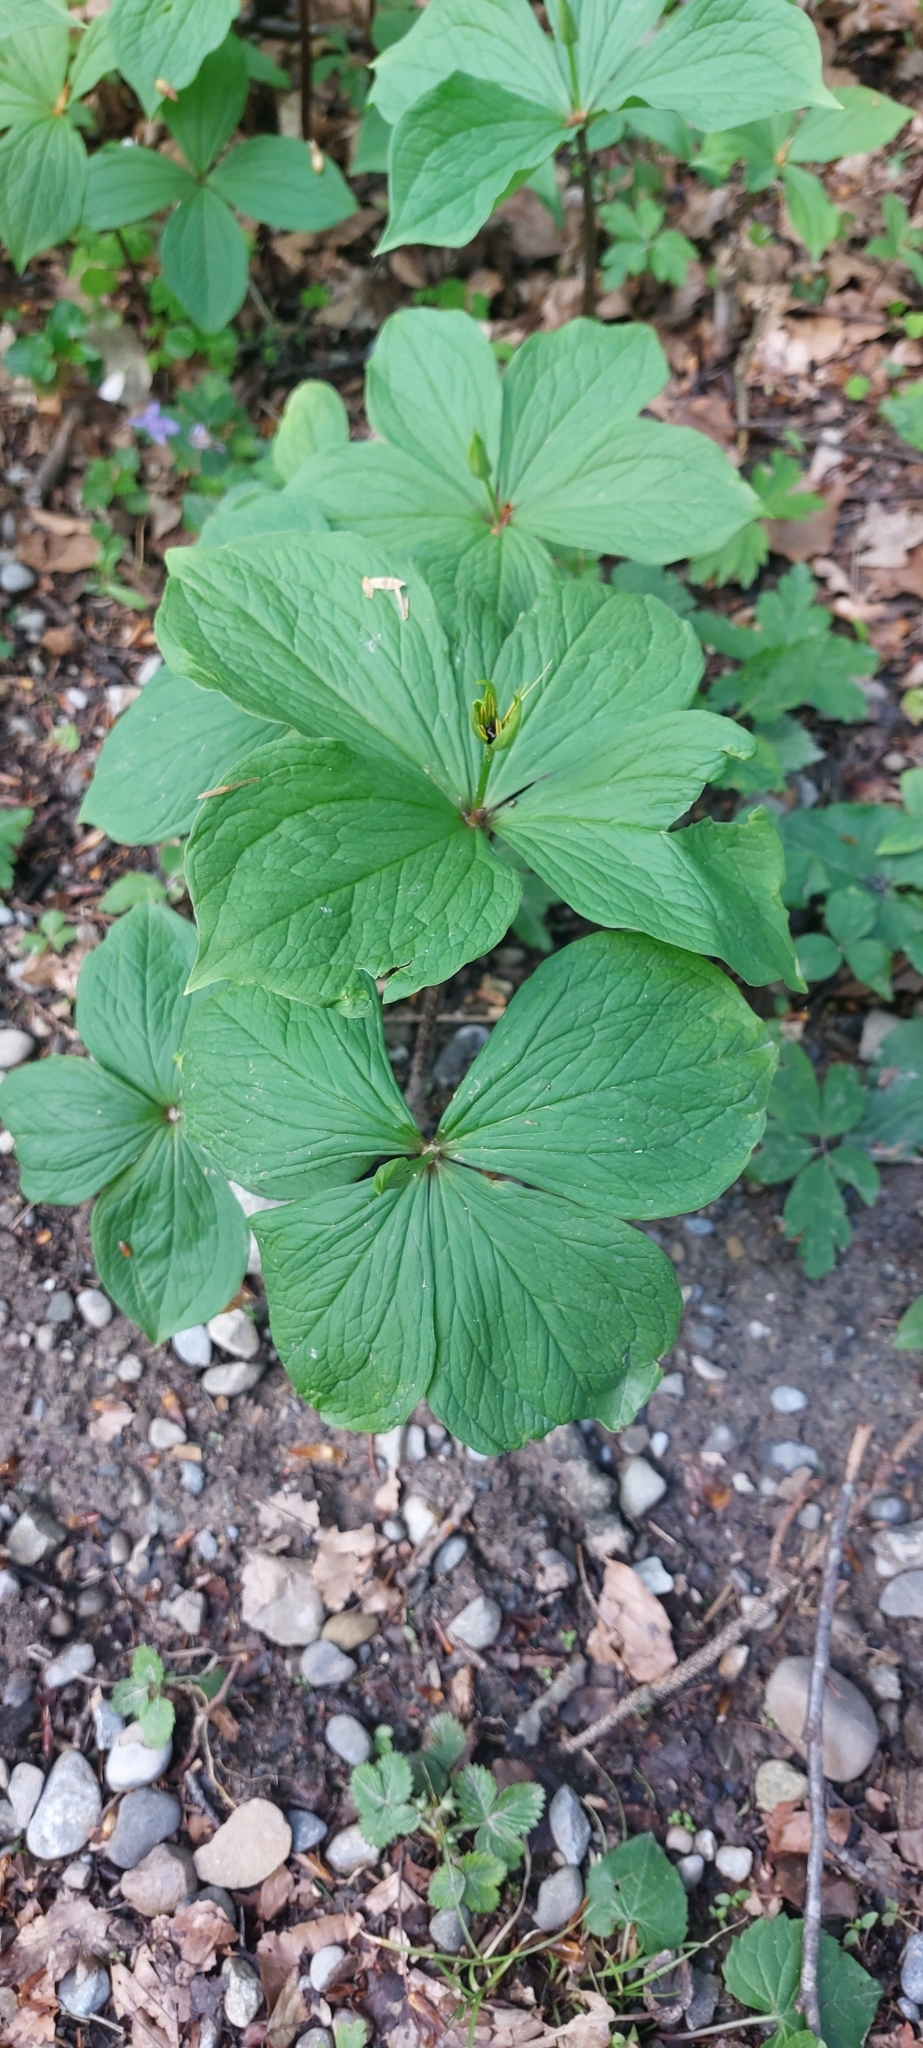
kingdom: Plantae
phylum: Tracheophyta
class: Liliopsida
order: Liliales
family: Melanthiaceae
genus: Paris
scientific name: Paris quadrifolia
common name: Herb-paris
